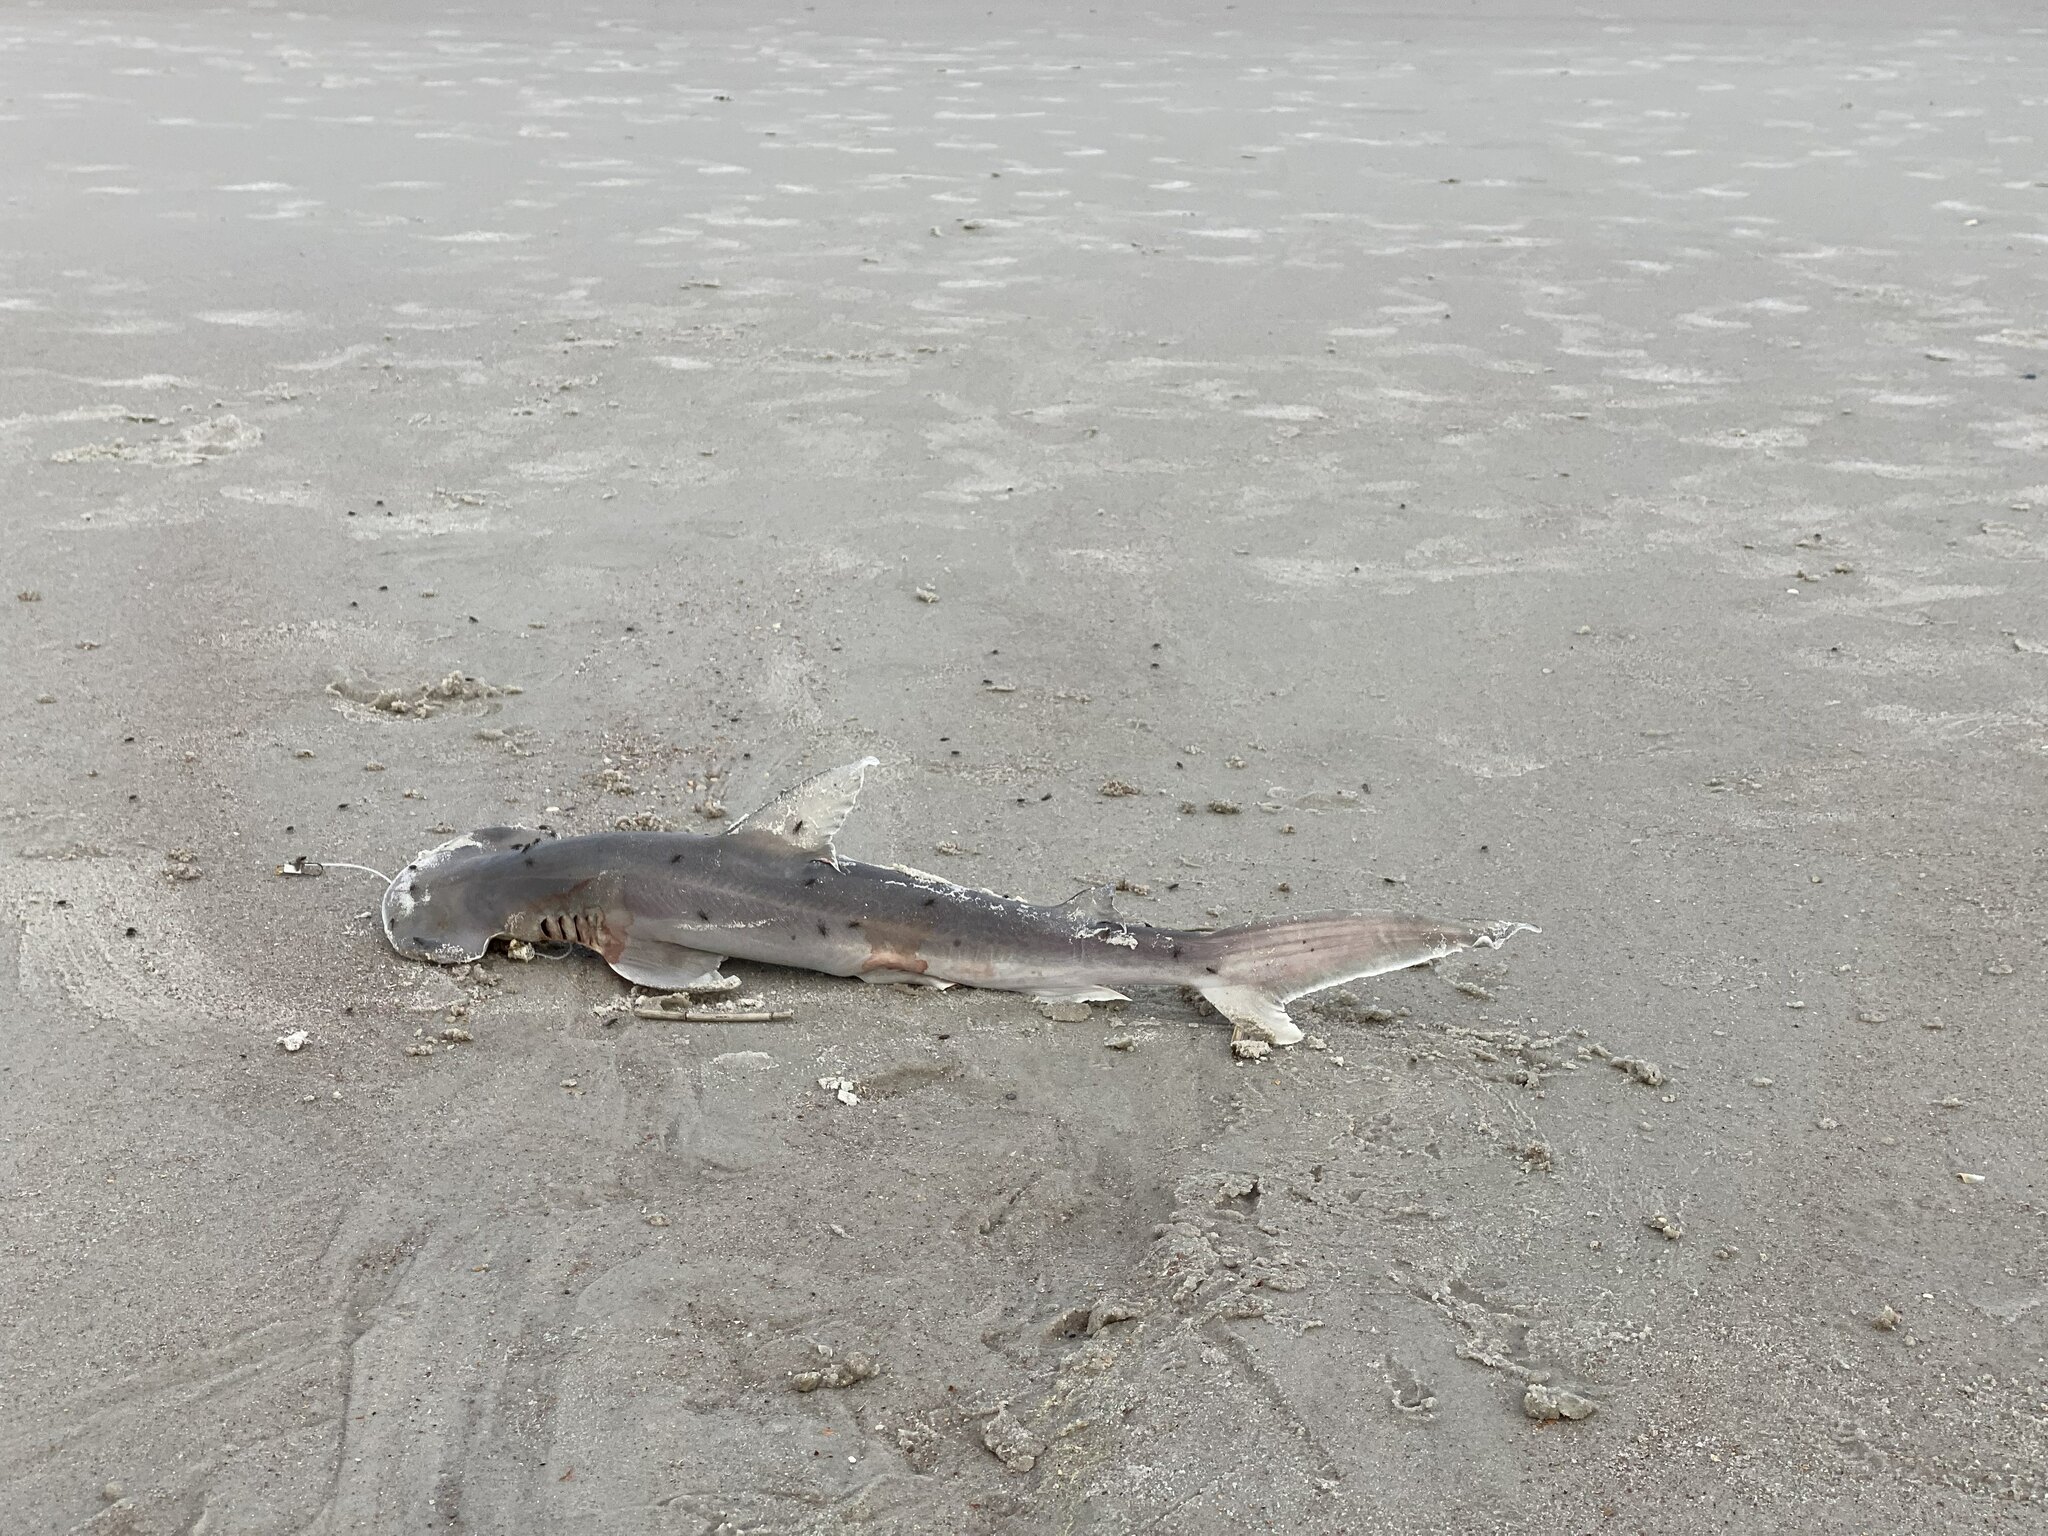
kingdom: Animalia
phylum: Chordata
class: Elasmobranchii
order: Carcharhiniformes
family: Sphyrnidae
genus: Sphyrna
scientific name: Sphyrna tiburo
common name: Bonnethead
